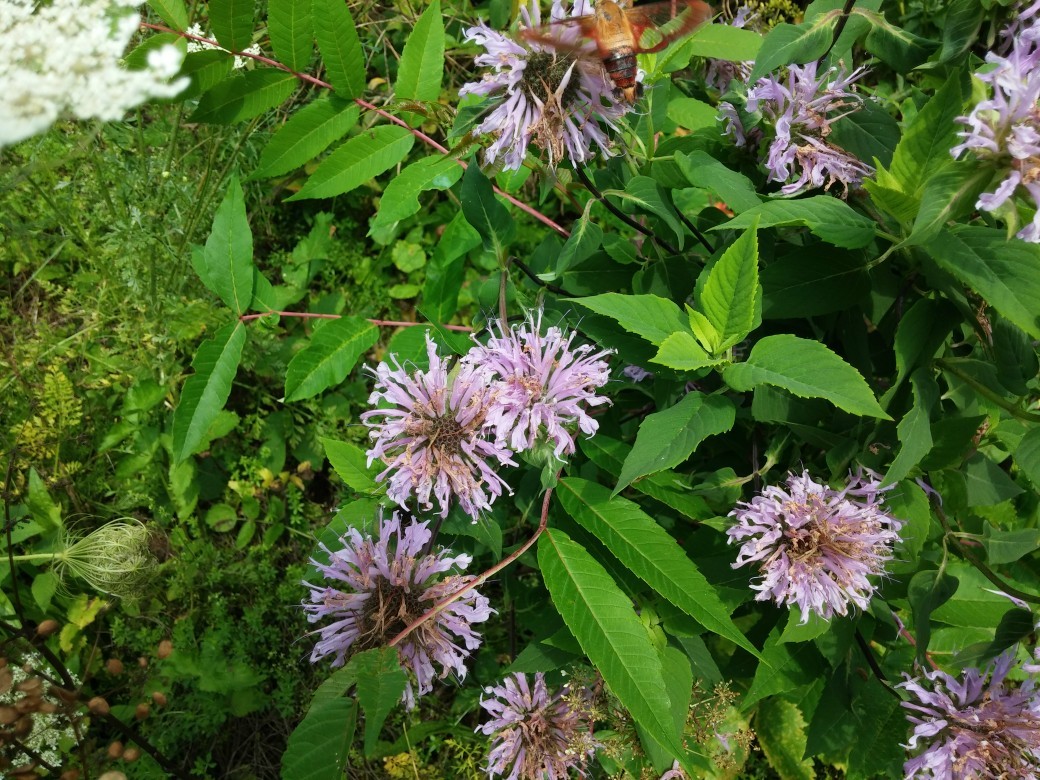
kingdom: Plantae
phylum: Tracheophyta
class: Magnoliopsida
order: Lamiales
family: Lamiaceae
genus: Monarda
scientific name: Monarda fistulosa
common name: Purple beebalm
